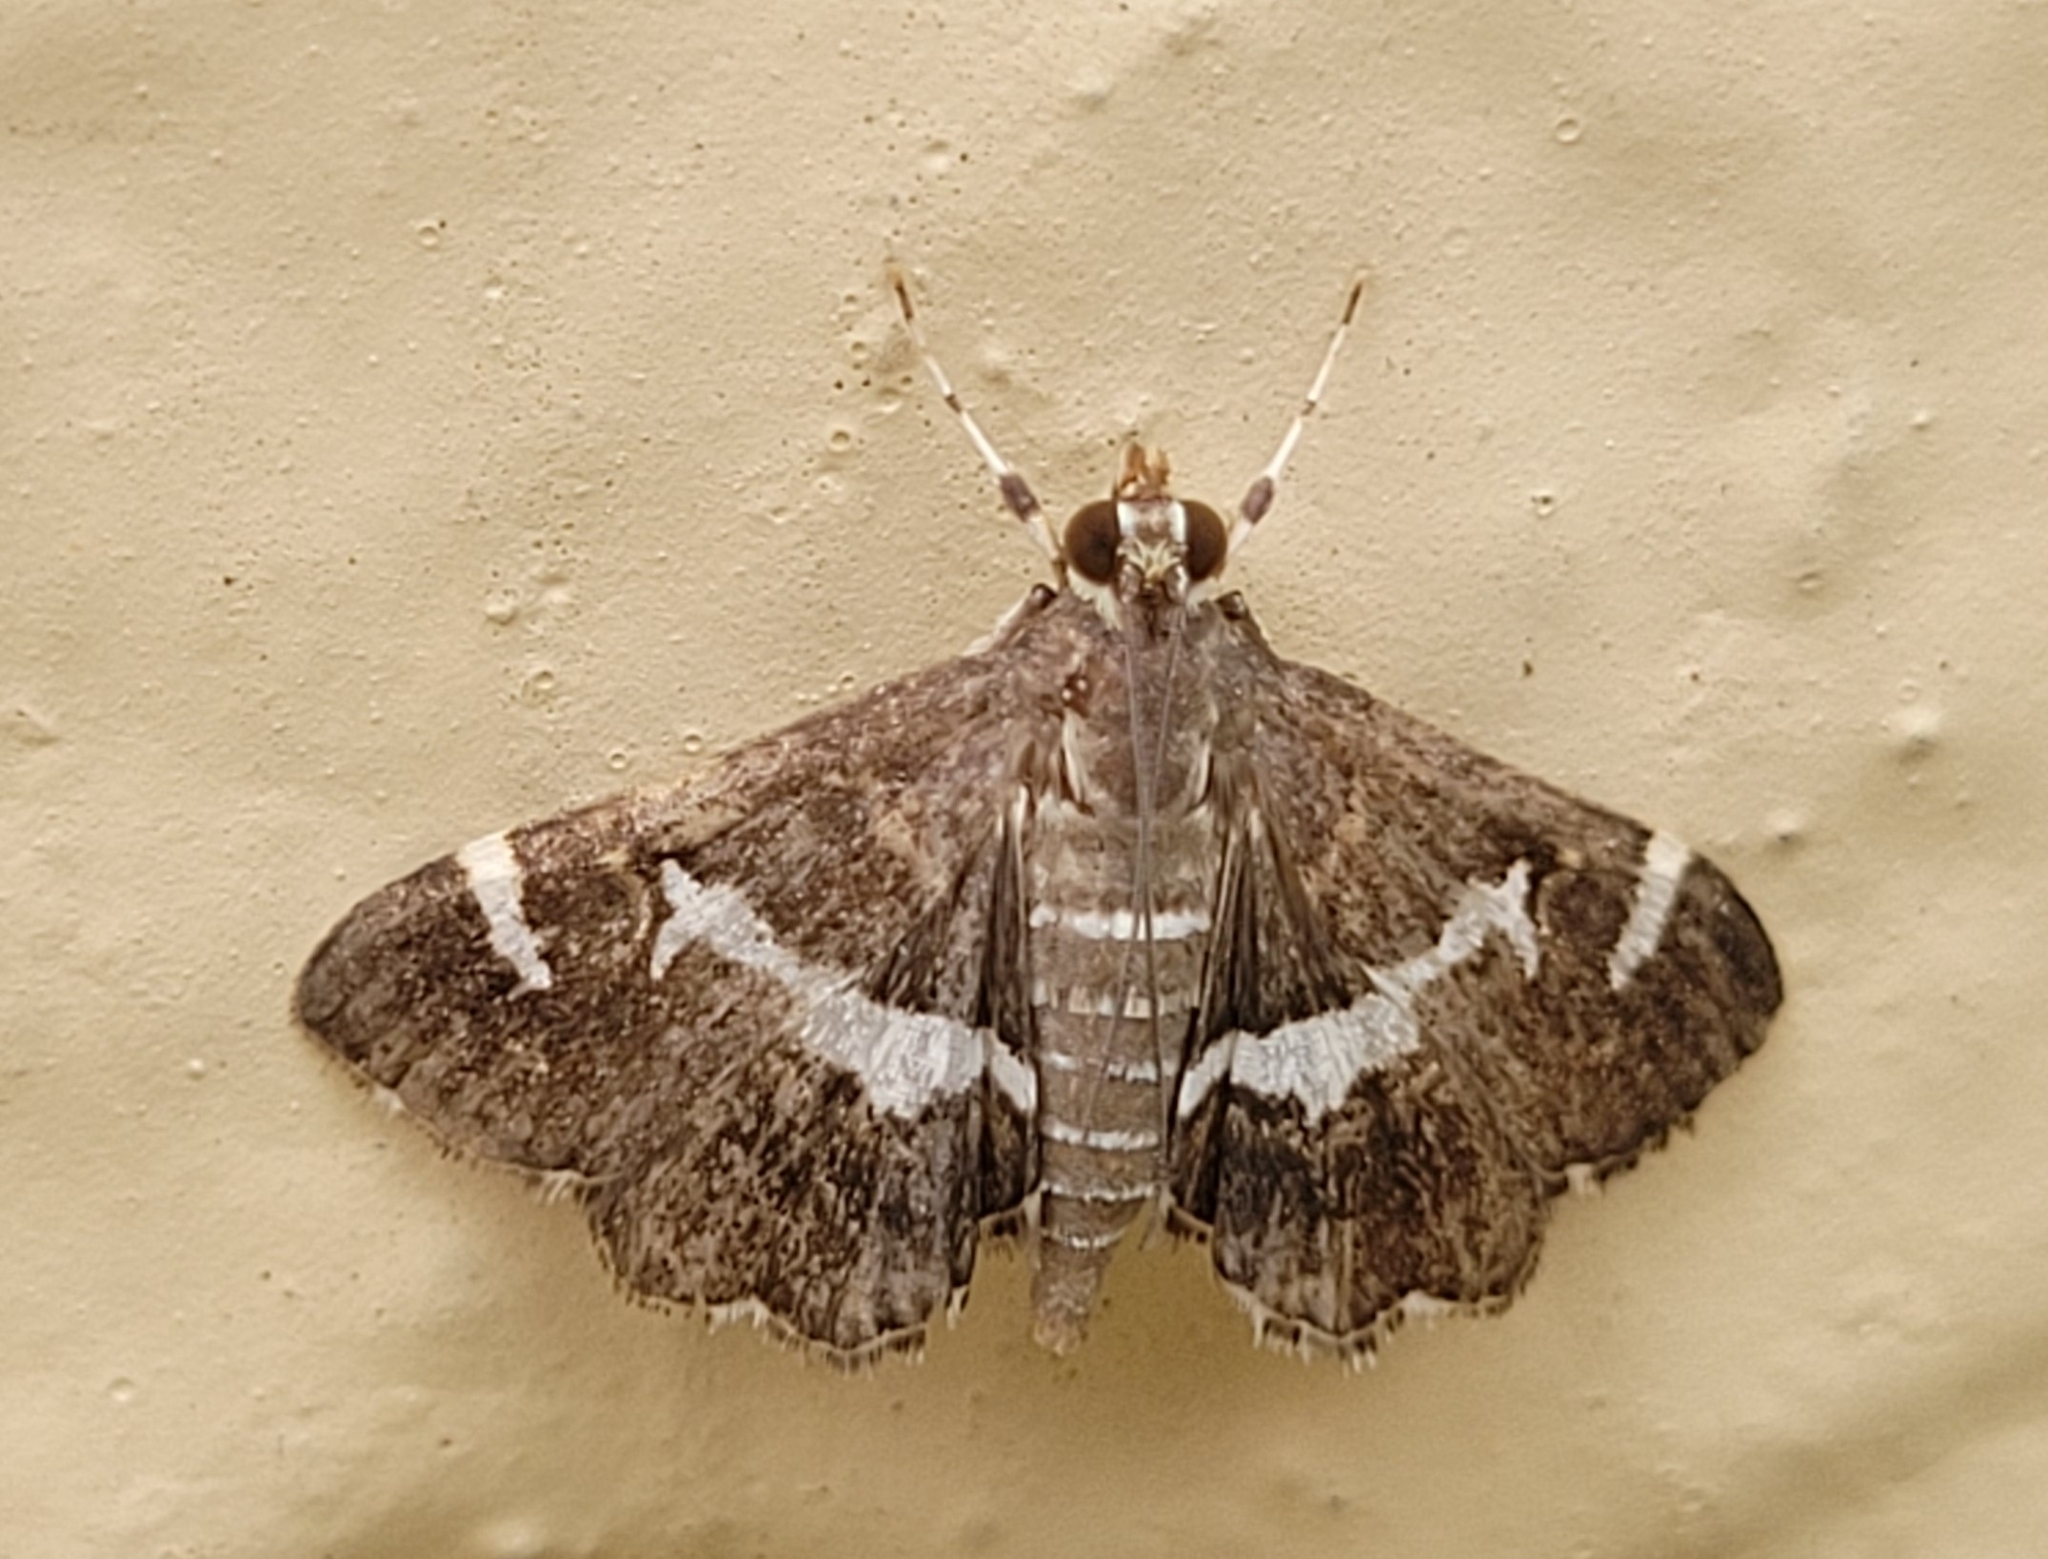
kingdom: Animalia
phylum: Arthropoda
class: Insecta
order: Lepidoptera
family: Crambidae
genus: Spoladea
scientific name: Spoladea recurvalis
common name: Beet webworm moth
